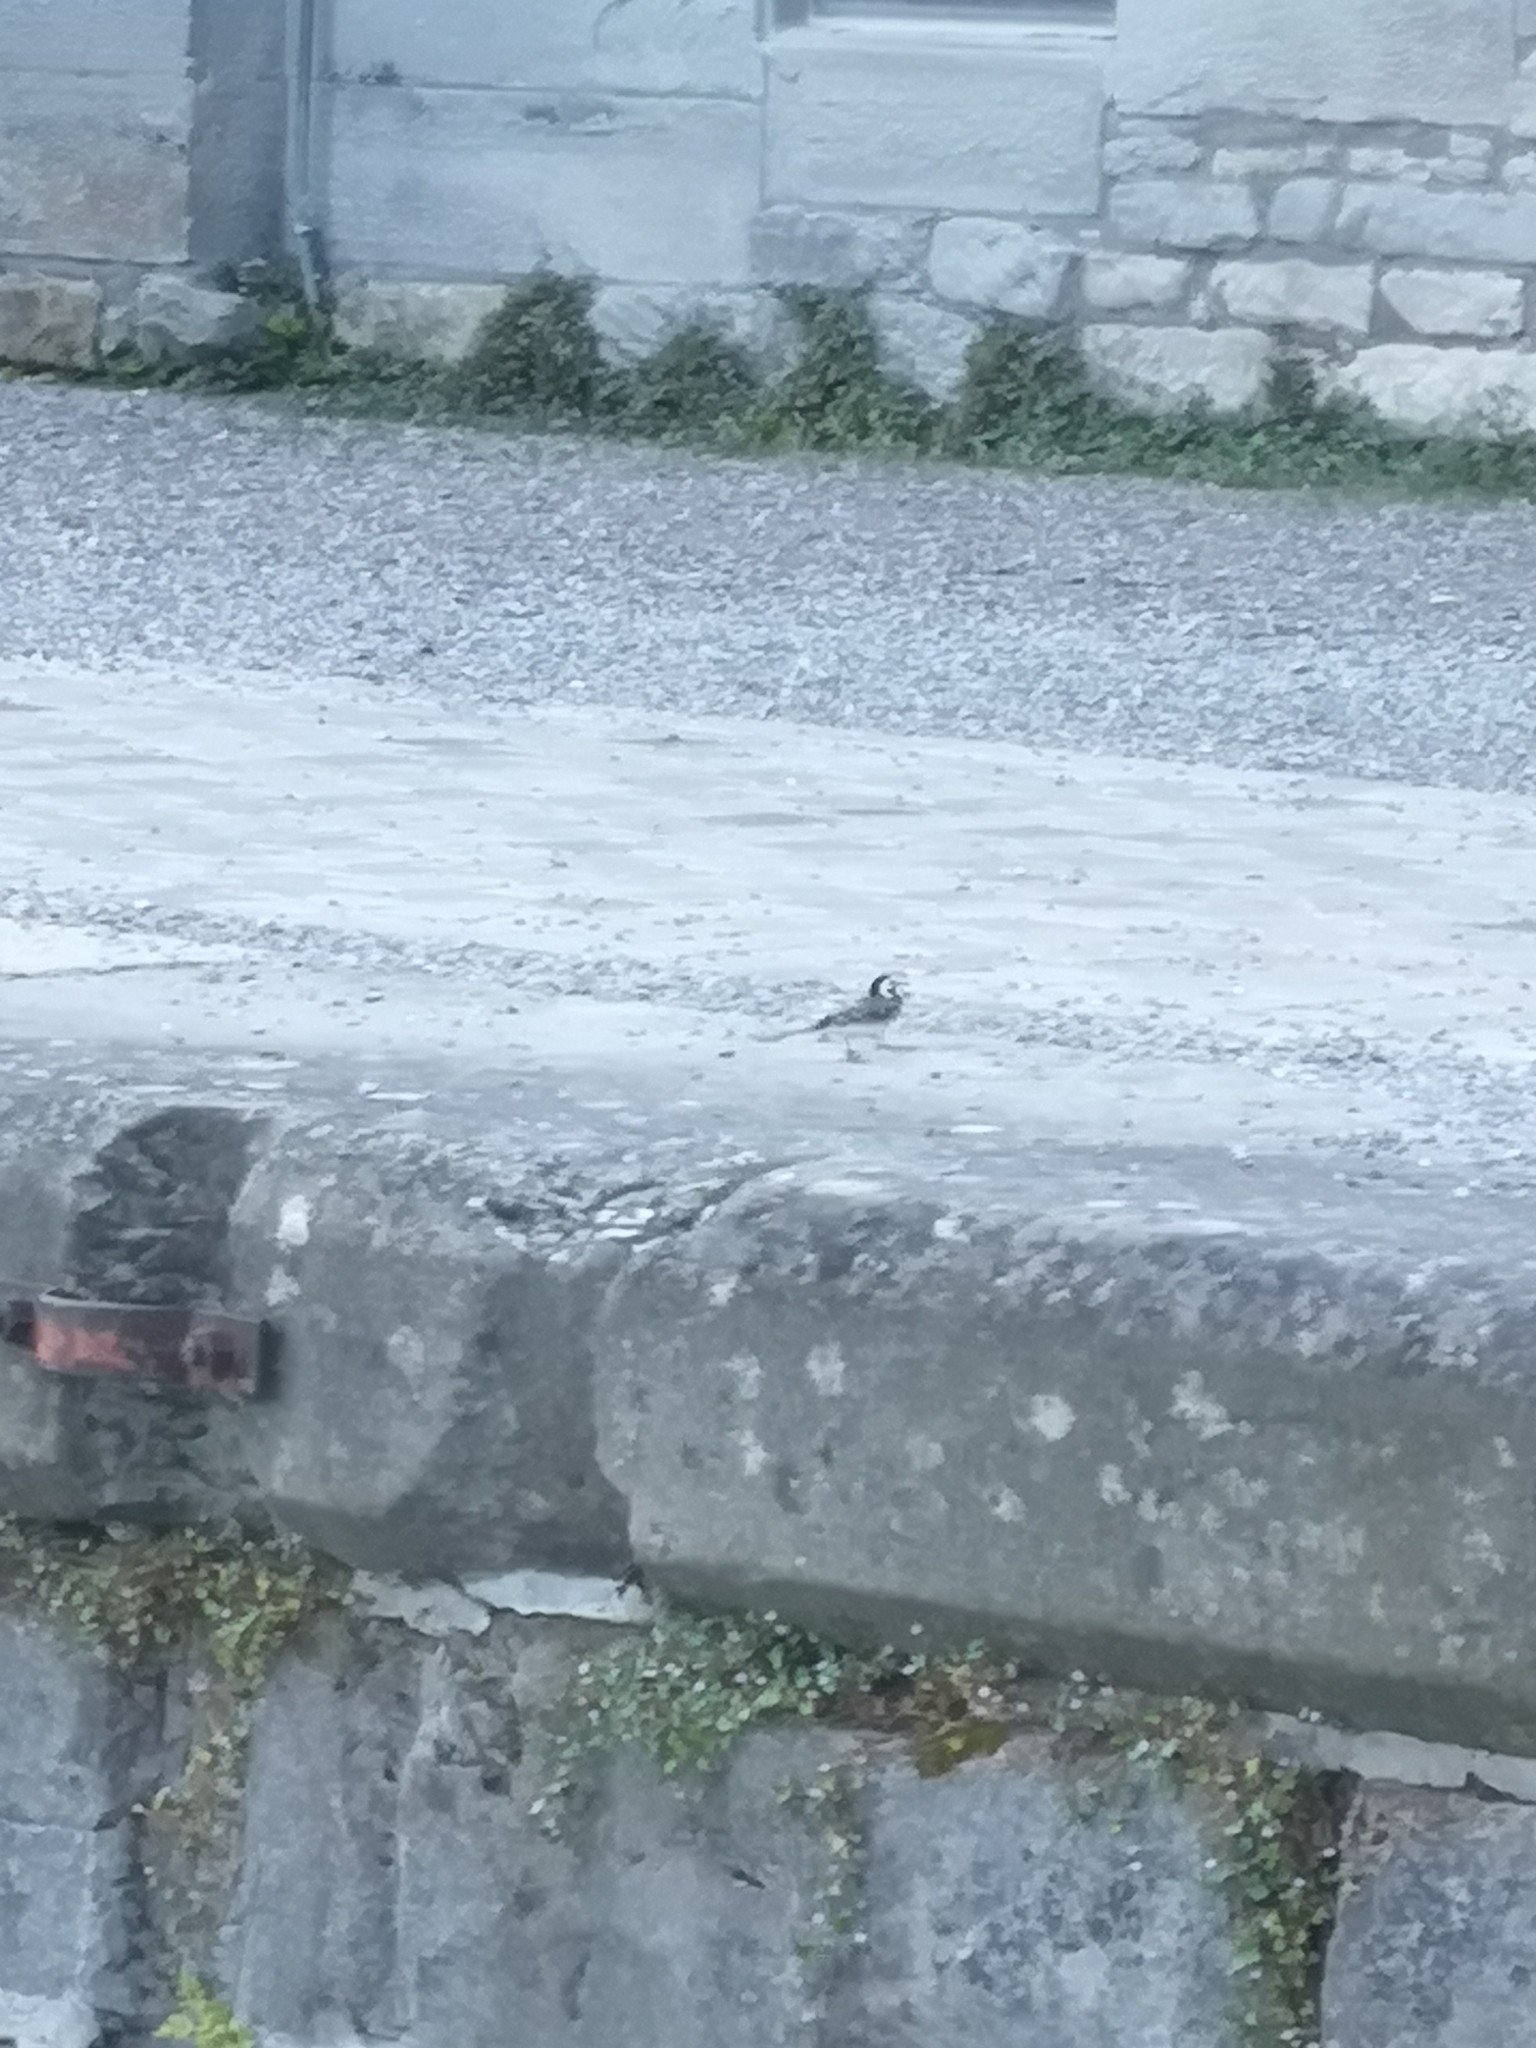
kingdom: Animalia
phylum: Chordata
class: Aves
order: Passeriformes
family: Motacillidae
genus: Motacilla
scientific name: Motacilla alba
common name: White wagtail
